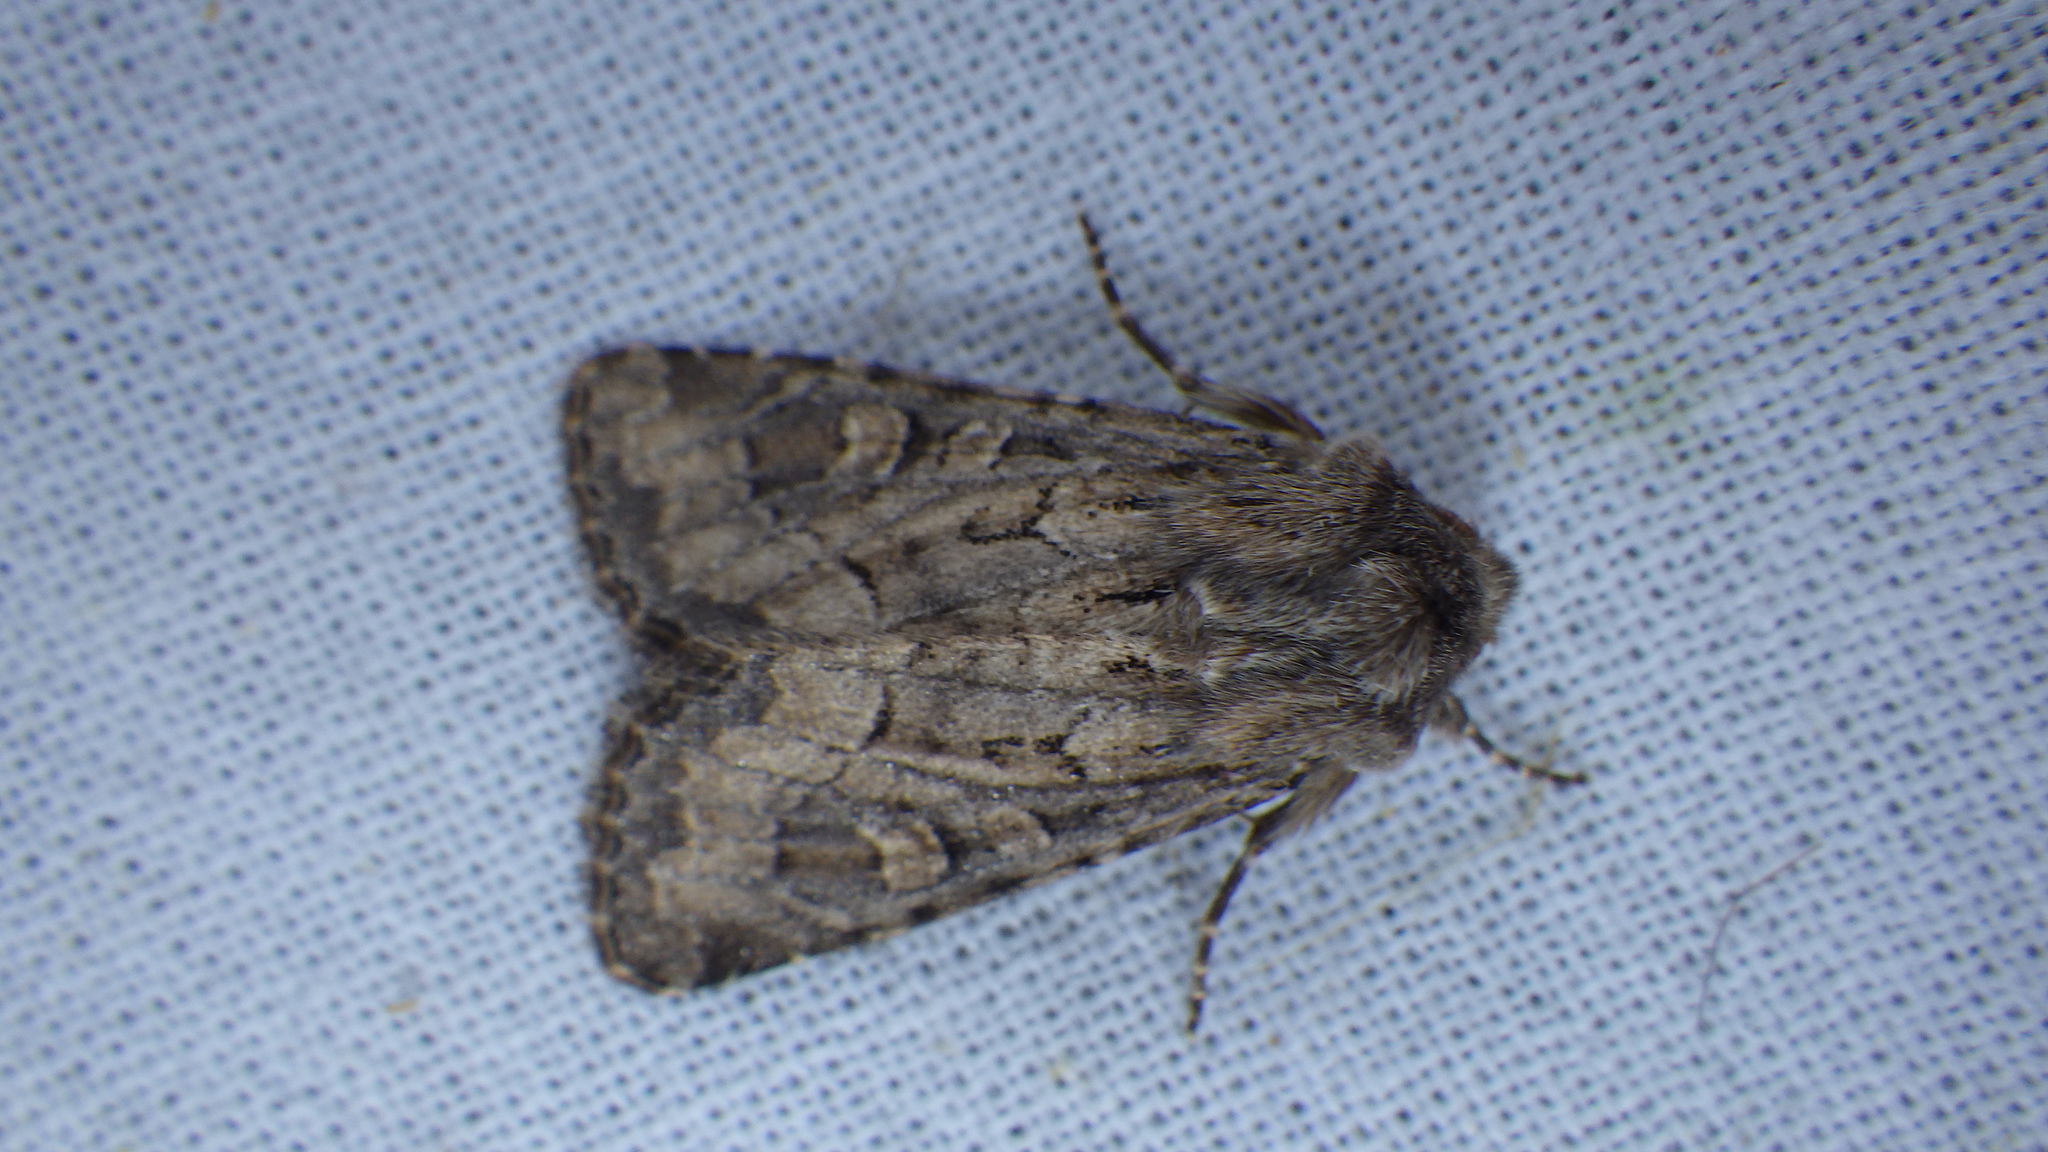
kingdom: Animalia
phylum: Arthropoda
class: Insecta
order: Lepidoptera
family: Noctuidae
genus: Luperina
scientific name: Luperina testacea
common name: Flounced rustic
